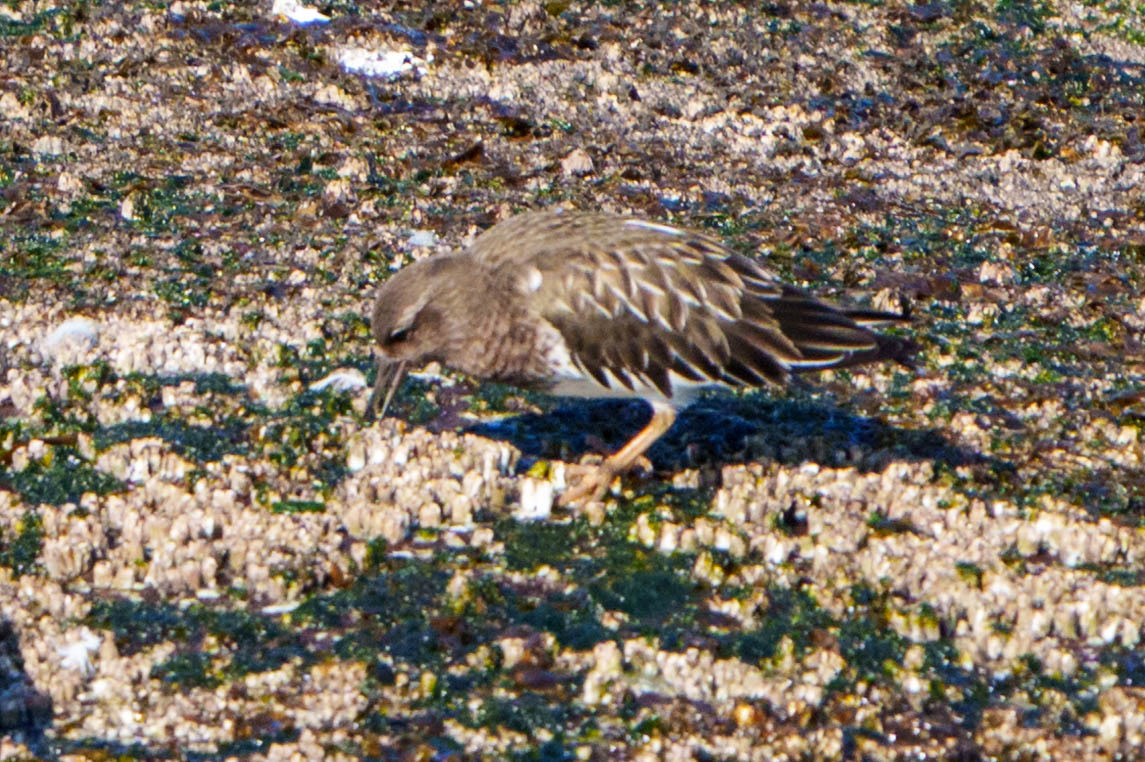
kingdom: Animalia
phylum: Chordata
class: Aves
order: Charadriiformes
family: Scolopacidae
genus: Arenaria
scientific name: Arenaria melanocephala
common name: Black turnstone
